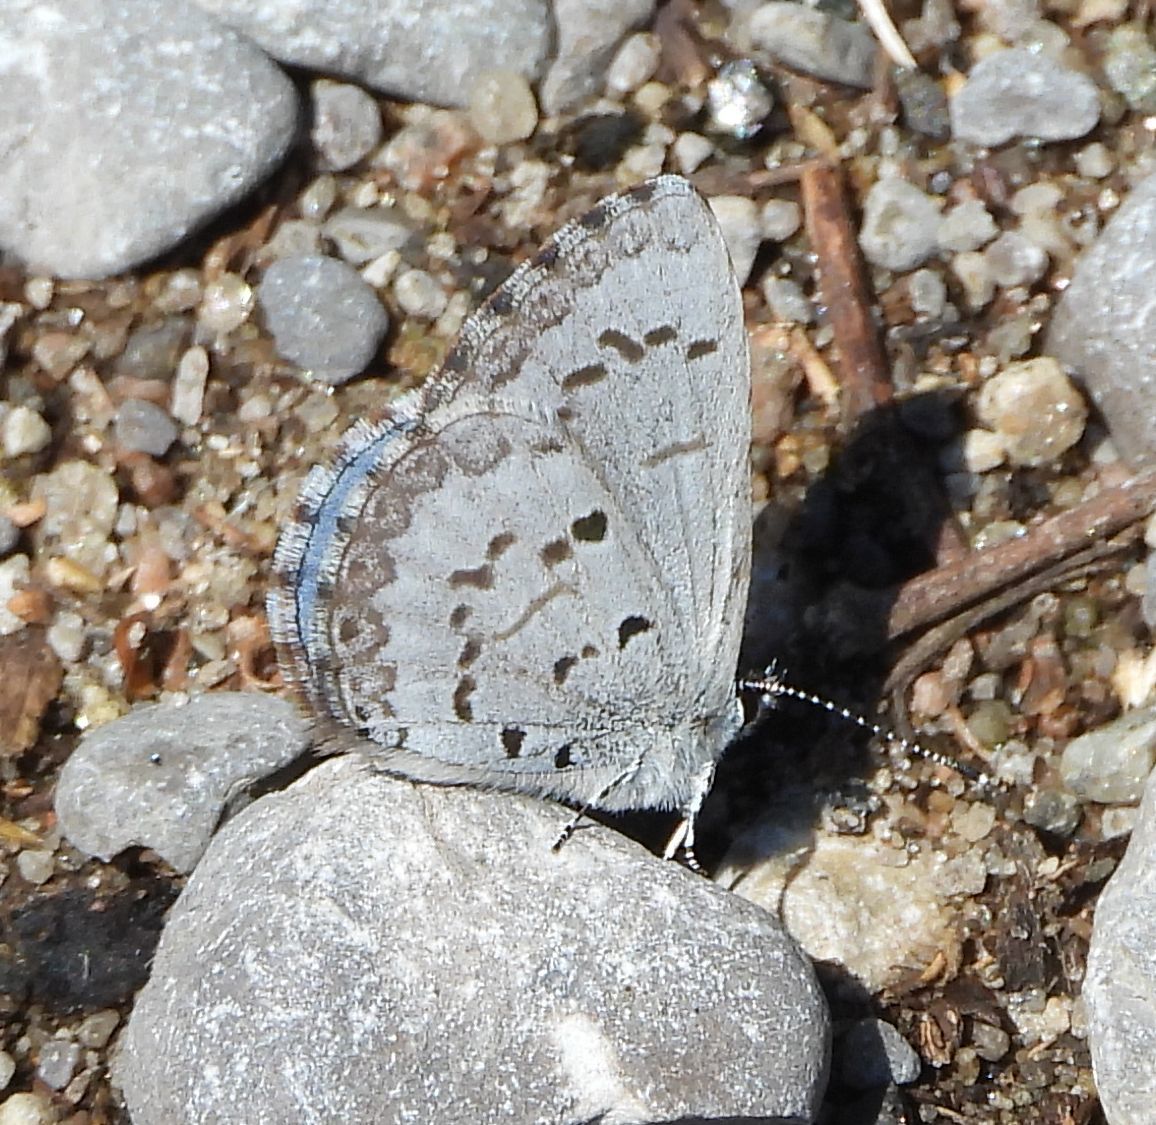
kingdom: Animalia
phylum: Arthropoda
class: Insecta
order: Lepidoptera
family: Lycaenidae
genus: Celastrina
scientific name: Celastrina lucia
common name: Lucia azure
